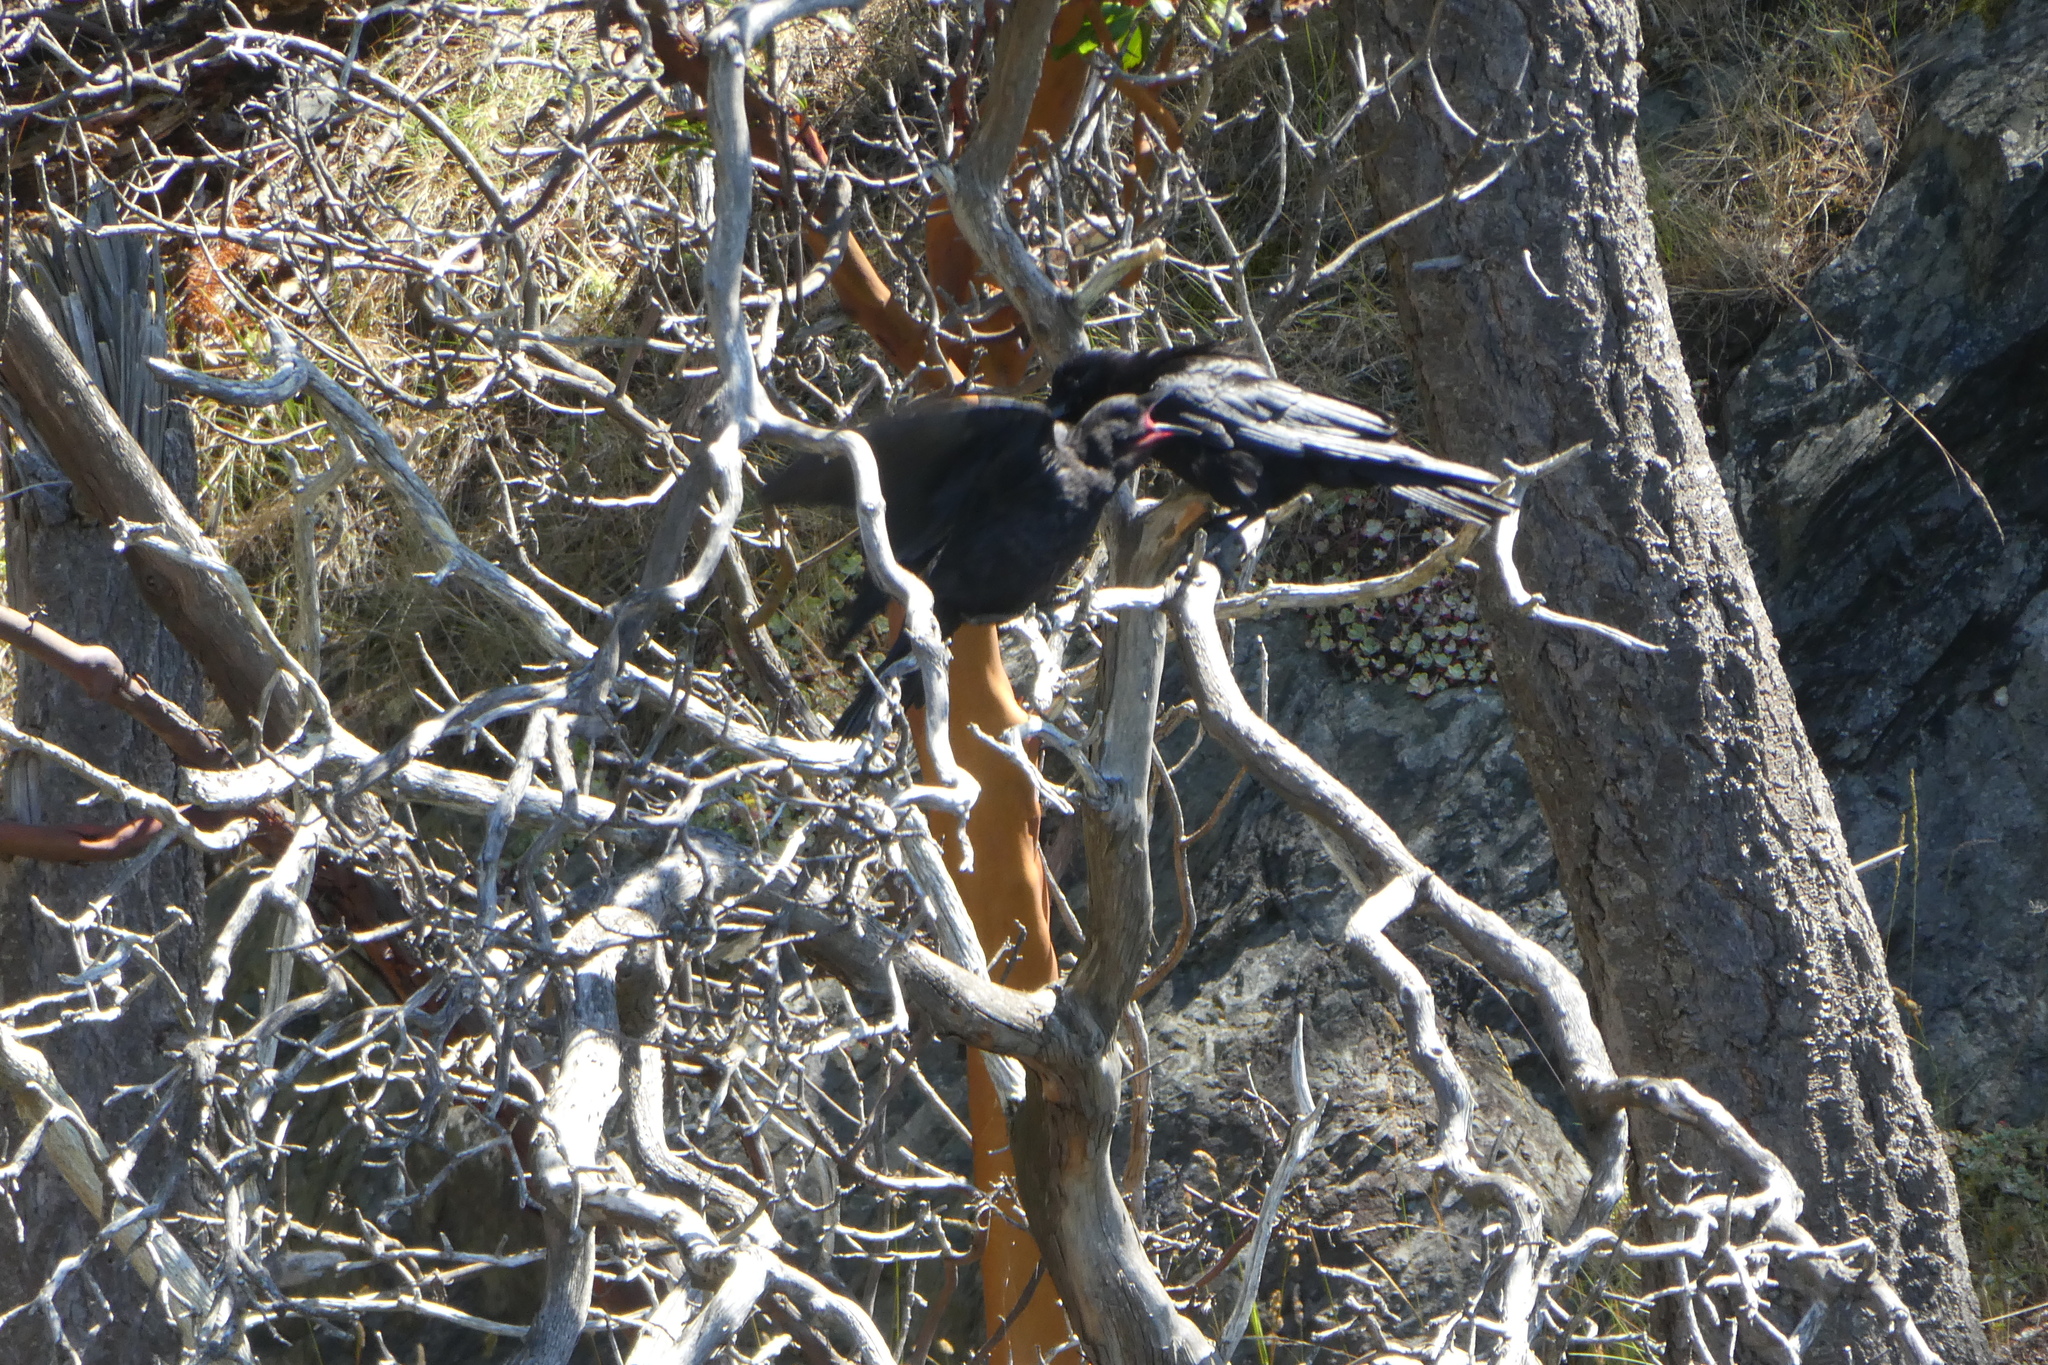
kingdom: Animalia
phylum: Chordata
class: Aves
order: Passeriformes
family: Corvidae
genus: Corvus
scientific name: Corvus corax
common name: Common raven
